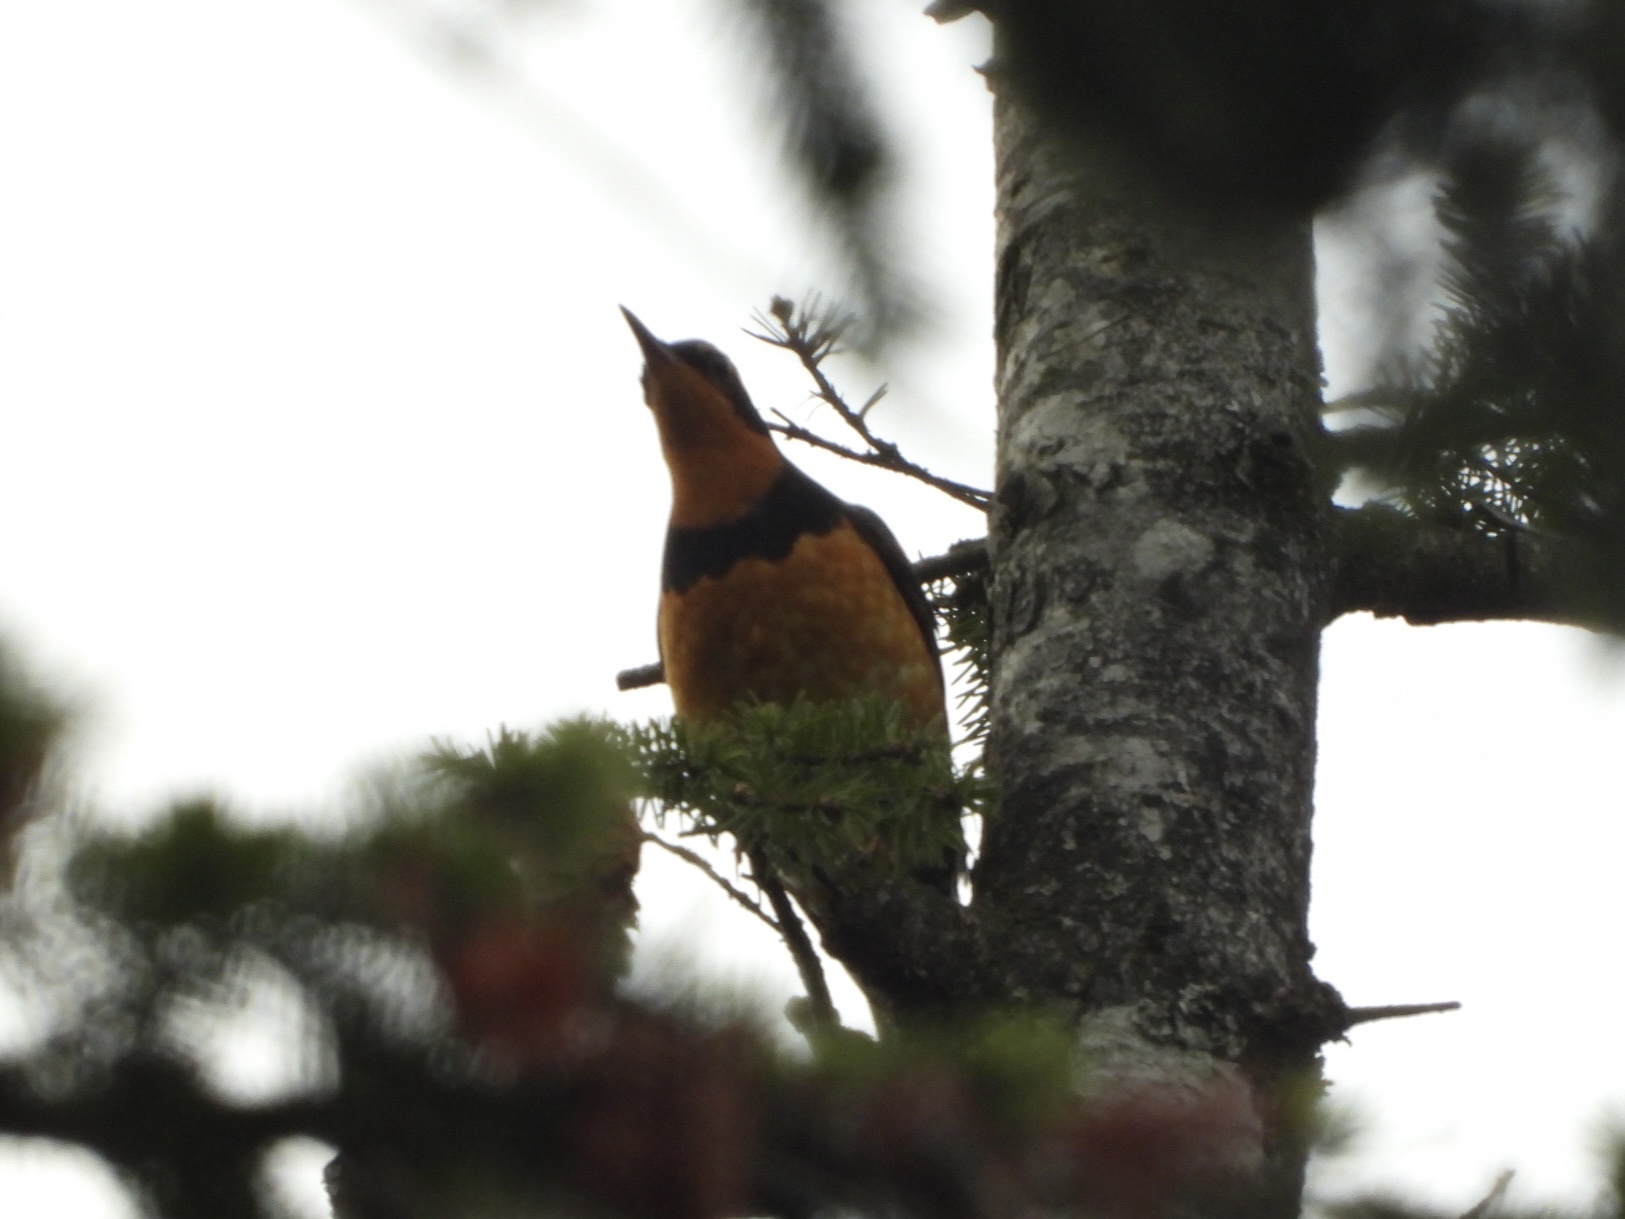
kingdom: Animalia
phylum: Chordata
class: Aves
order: Passeriformes
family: Turdidae
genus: Ixoreus
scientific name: Ixoreus naevius
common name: Varied thrush
